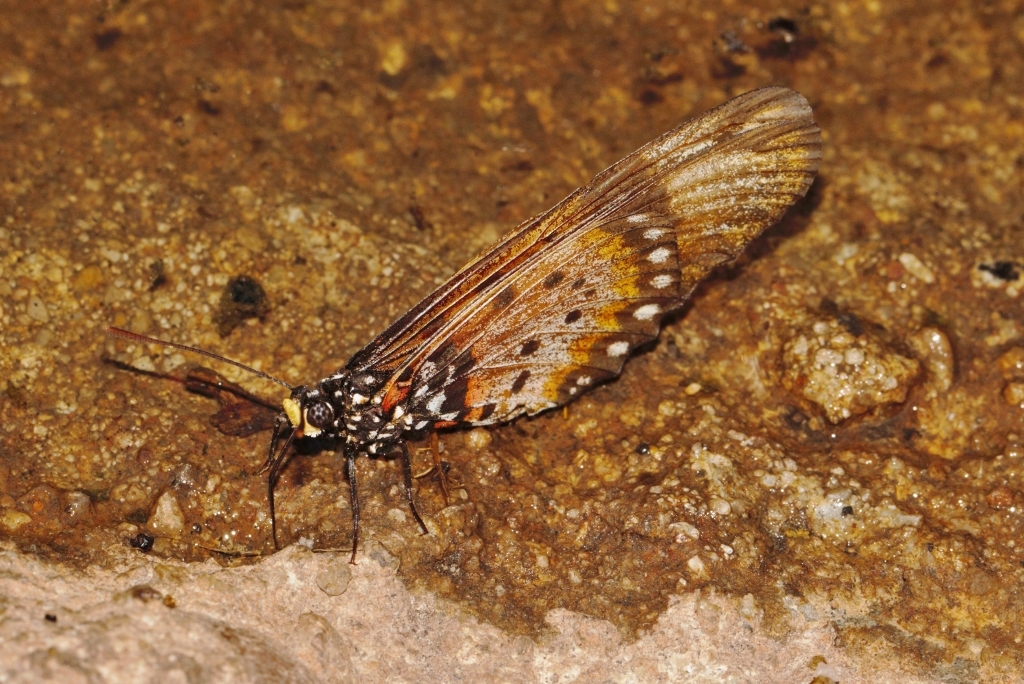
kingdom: Animalia
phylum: Arthropoda
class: Insecta
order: Lepidoptera
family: Nymphalidae
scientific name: Nymphalidae
